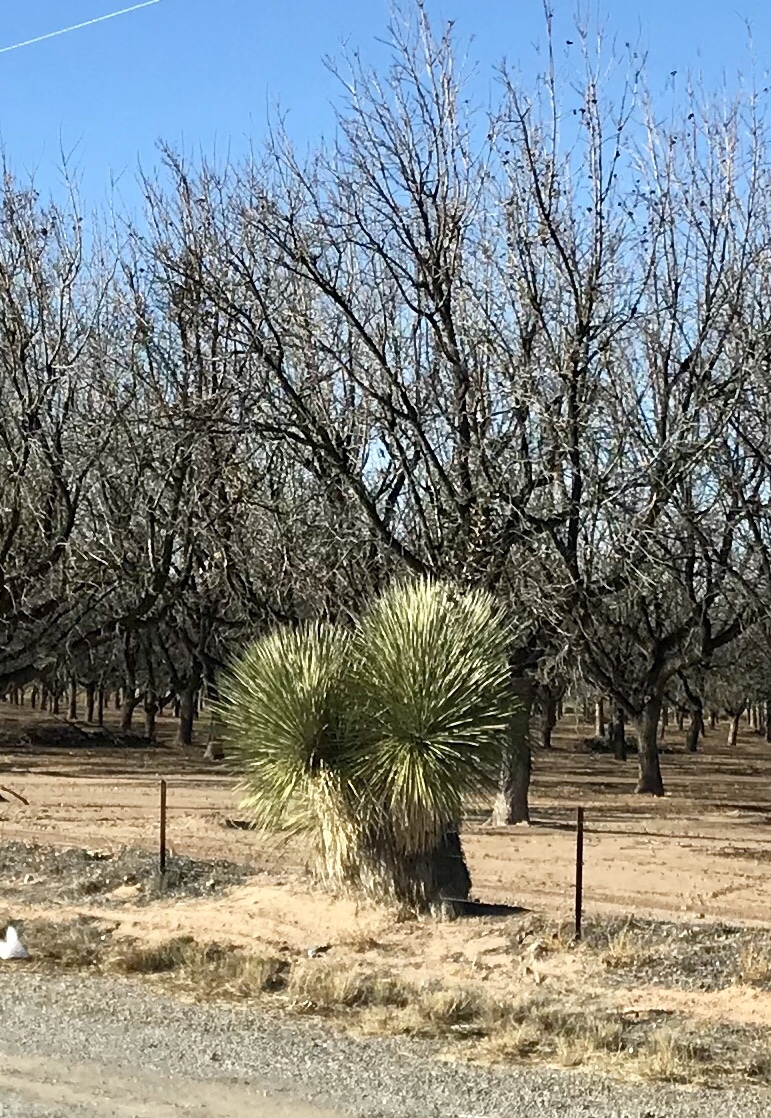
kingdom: Plantae
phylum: Tracheophyta
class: Liliopsida
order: Asparagales
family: Asparagaceae
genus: Yucca
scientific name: Yucca elata
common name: Palmella
